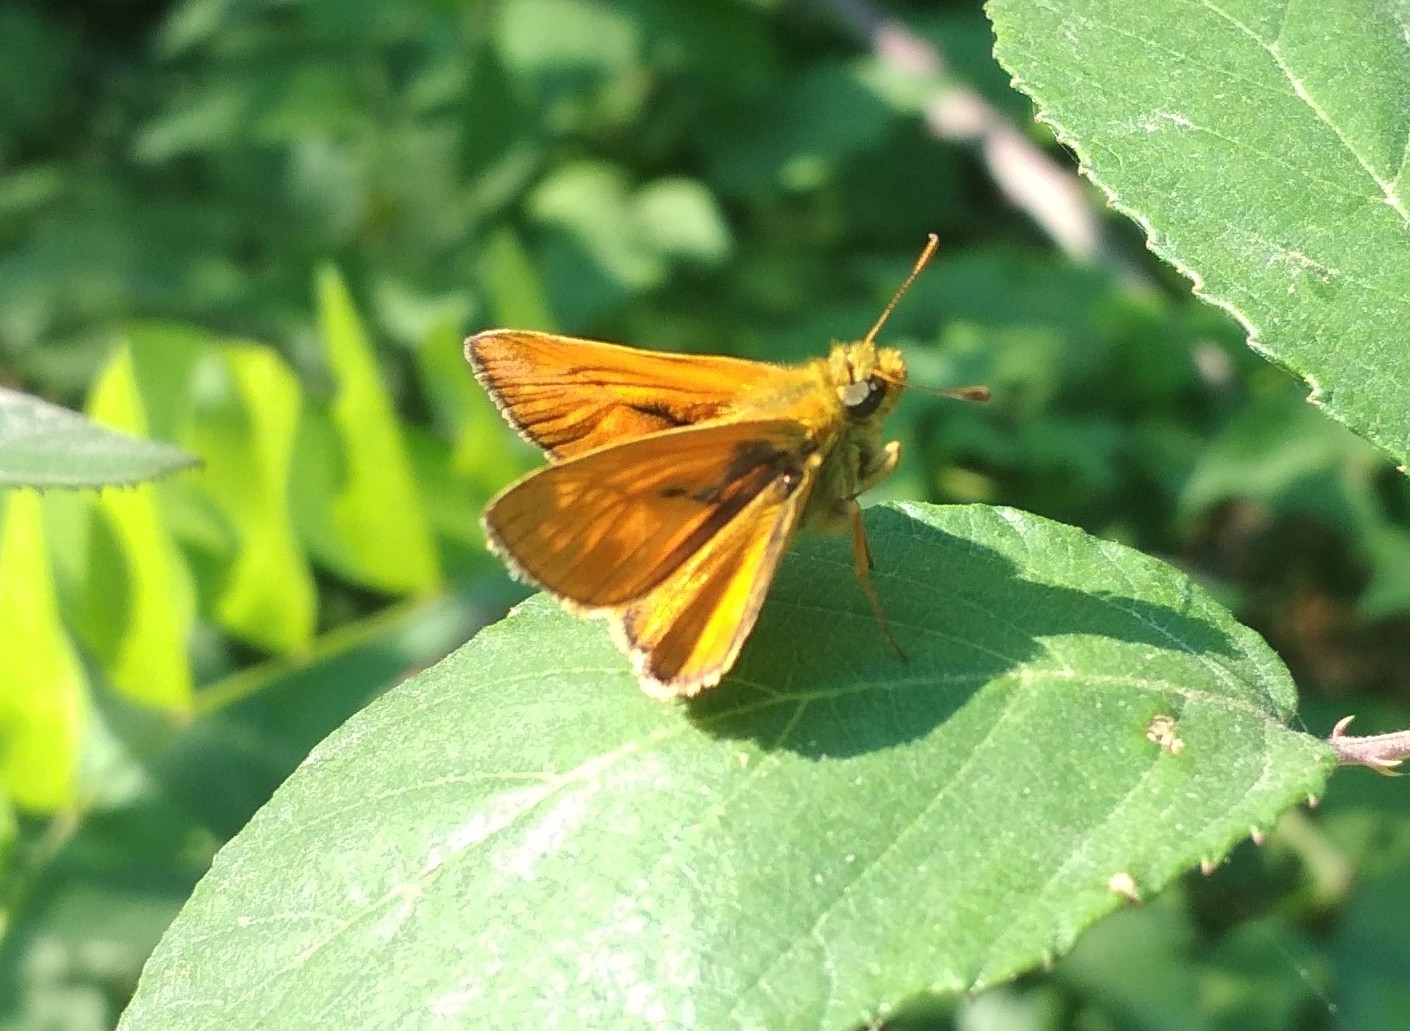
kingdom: Animalia
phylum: Arthropoda
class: Insecta
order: Lepidoptera
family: Hesperiidae
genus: Ochlodes
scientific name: Ochlodes venata
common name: Large skipper
